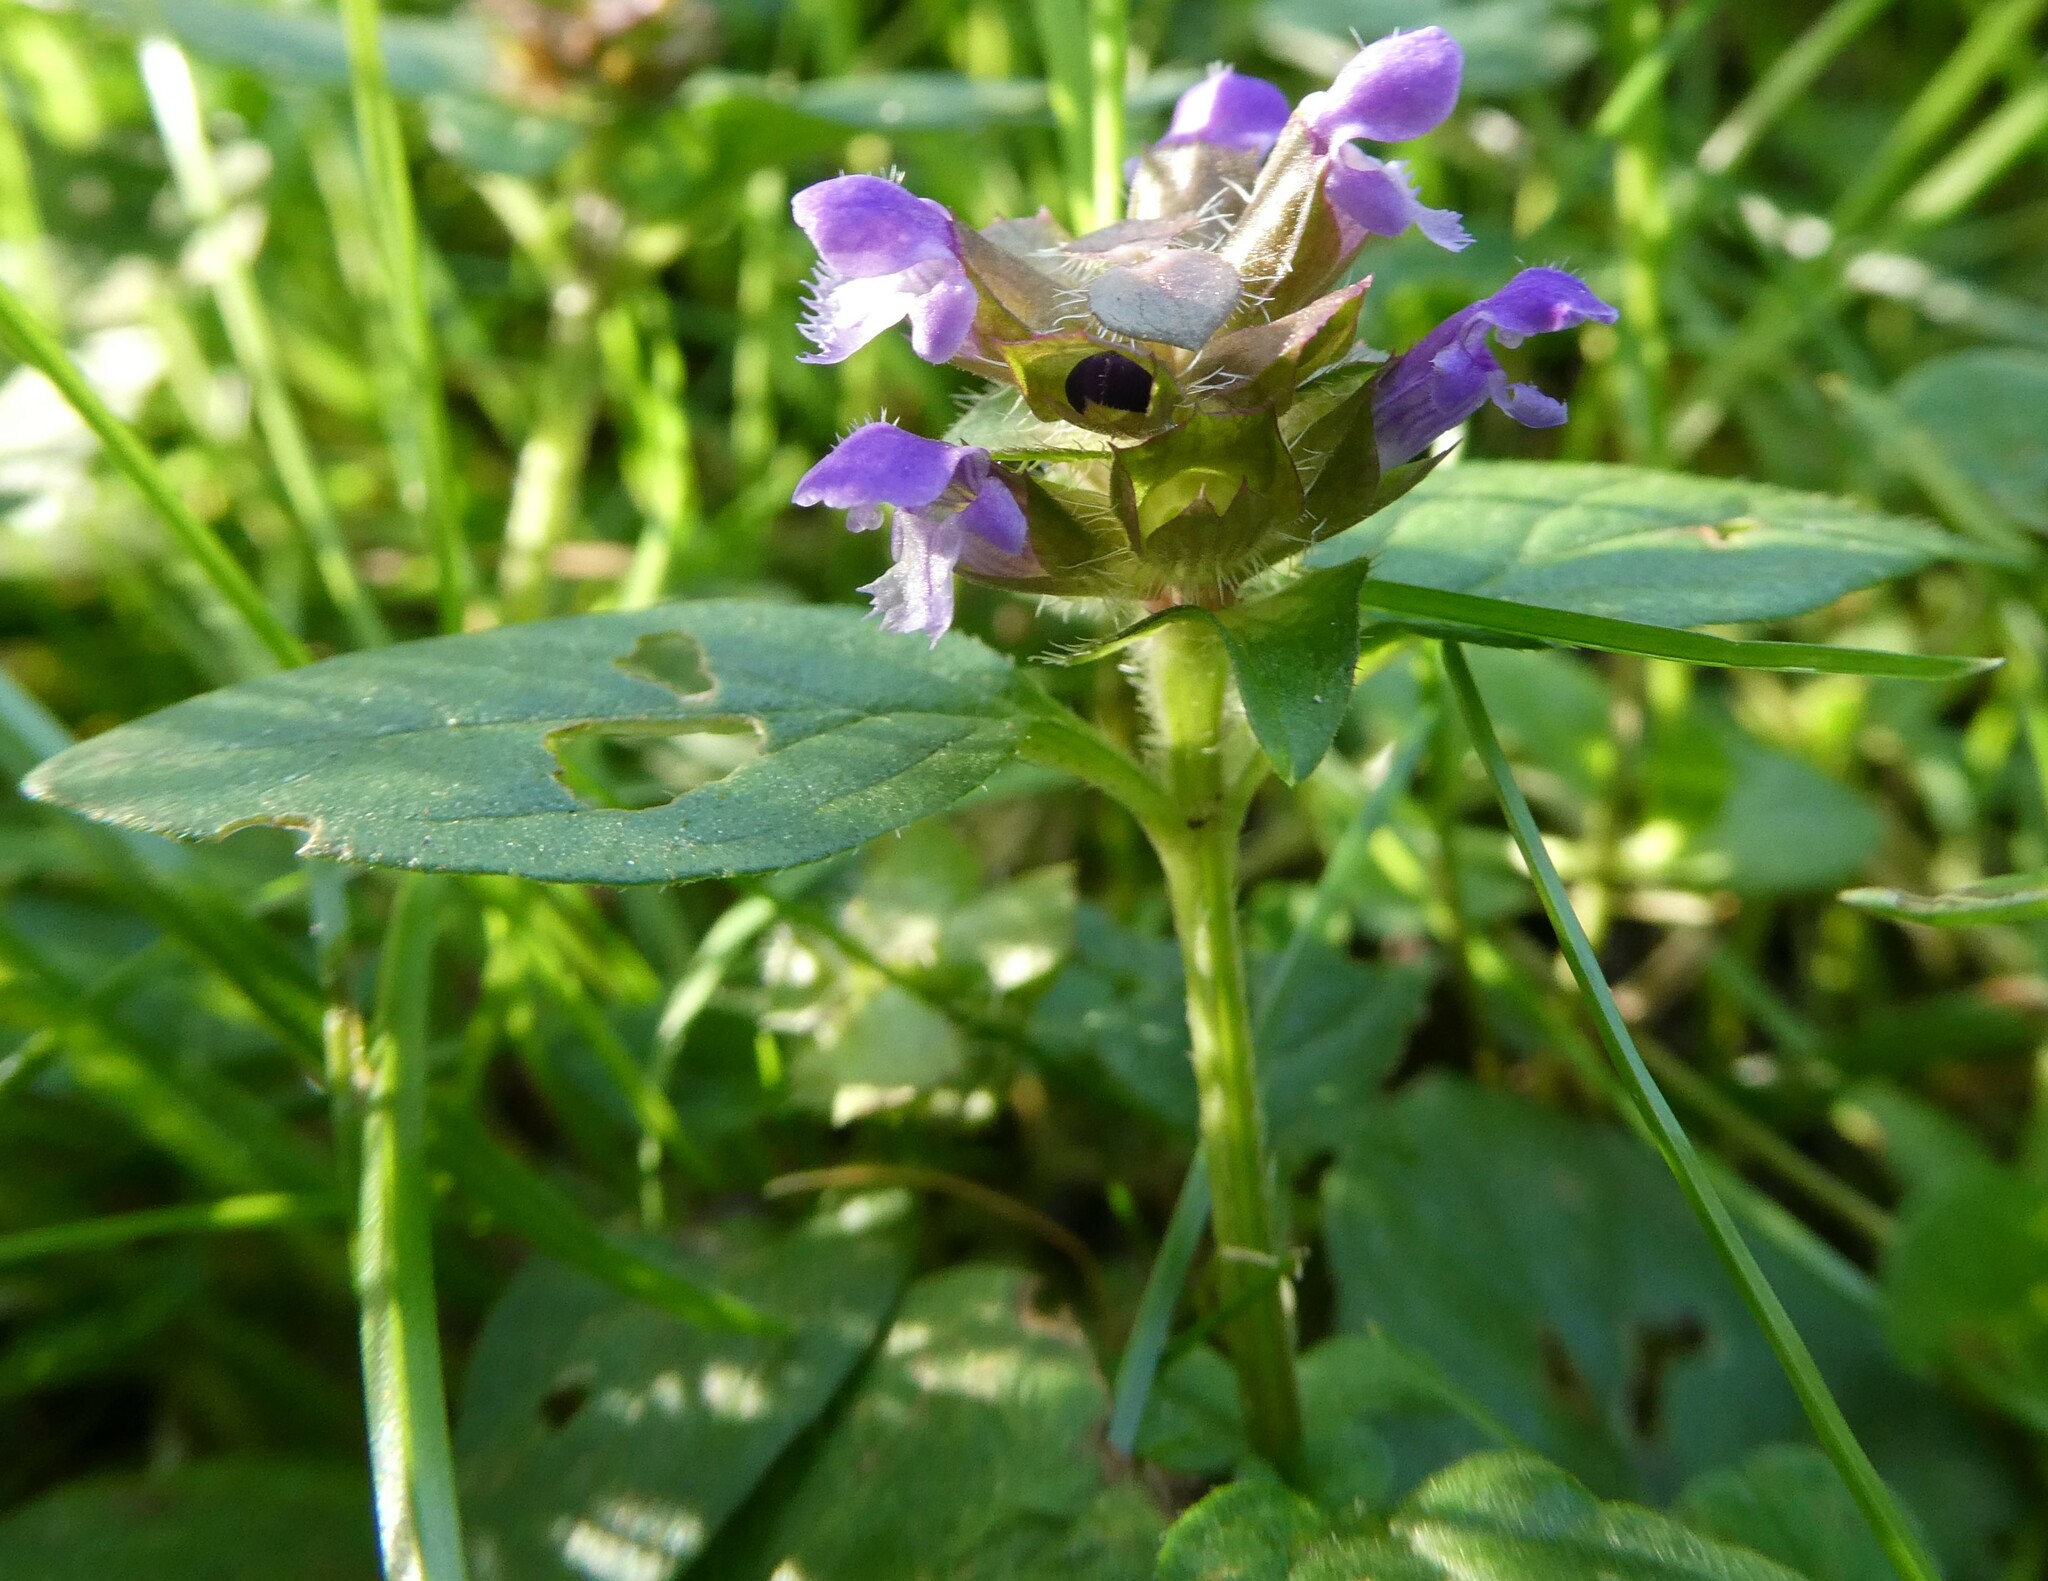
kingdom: Plantae
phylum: Tracheophyta
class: Magnoliopsida
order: Lamiales
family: Lamiaceae
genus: Prunella
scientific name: Prunella vulgaris
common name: Heal-all
